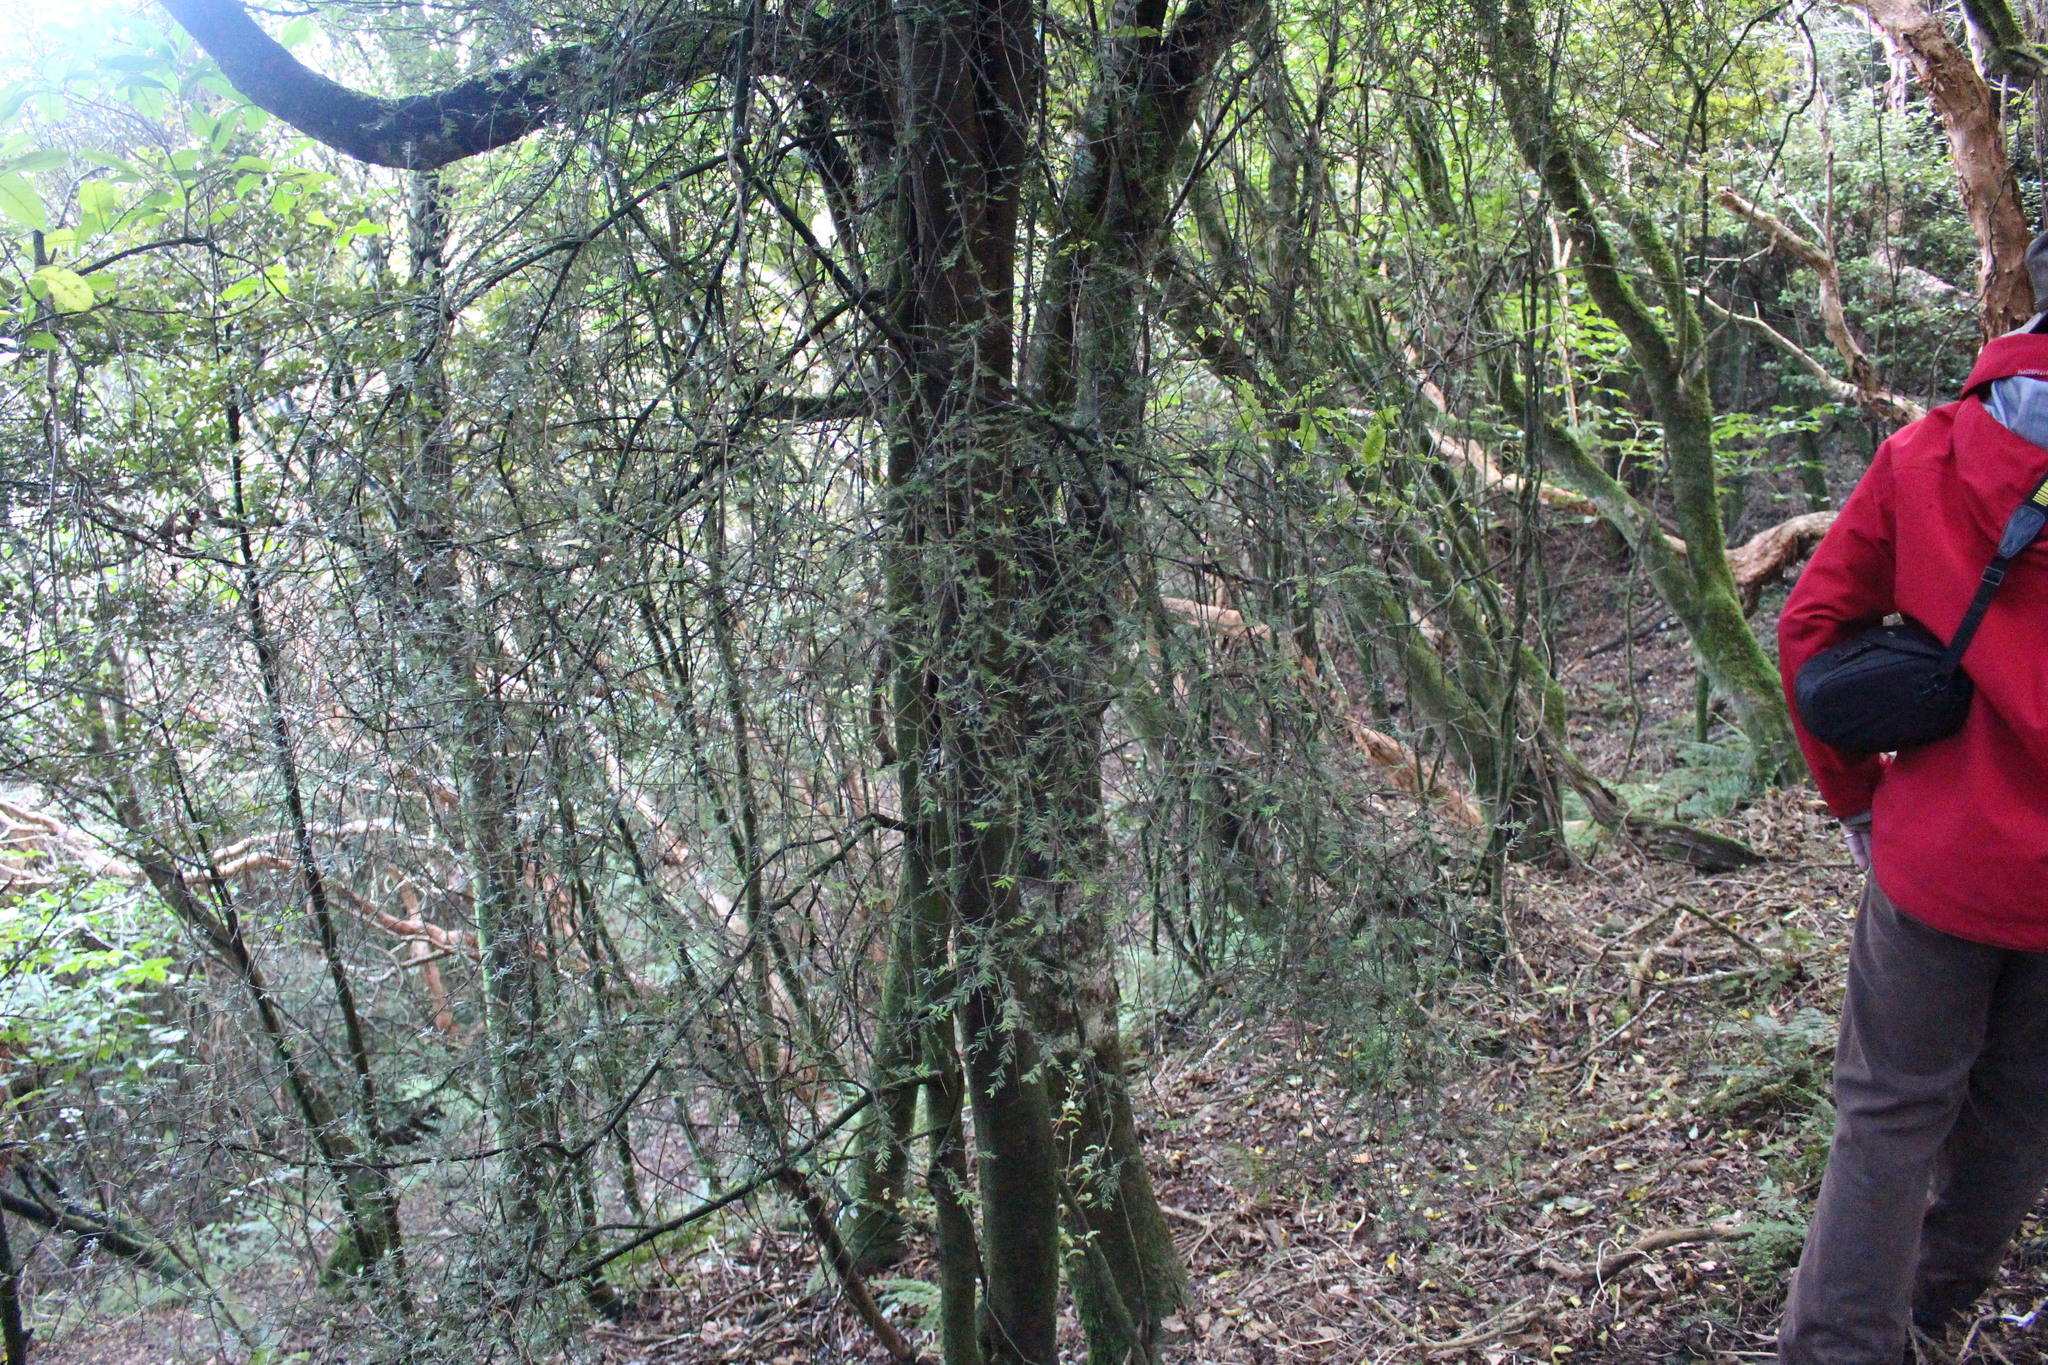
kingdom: Plantae
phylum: Tracheophyta
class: Pinopsida
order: Pinales
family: Podocarpaceae
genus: Prumnopitys
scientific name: Prumnopitys taxifolia
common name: Matai
